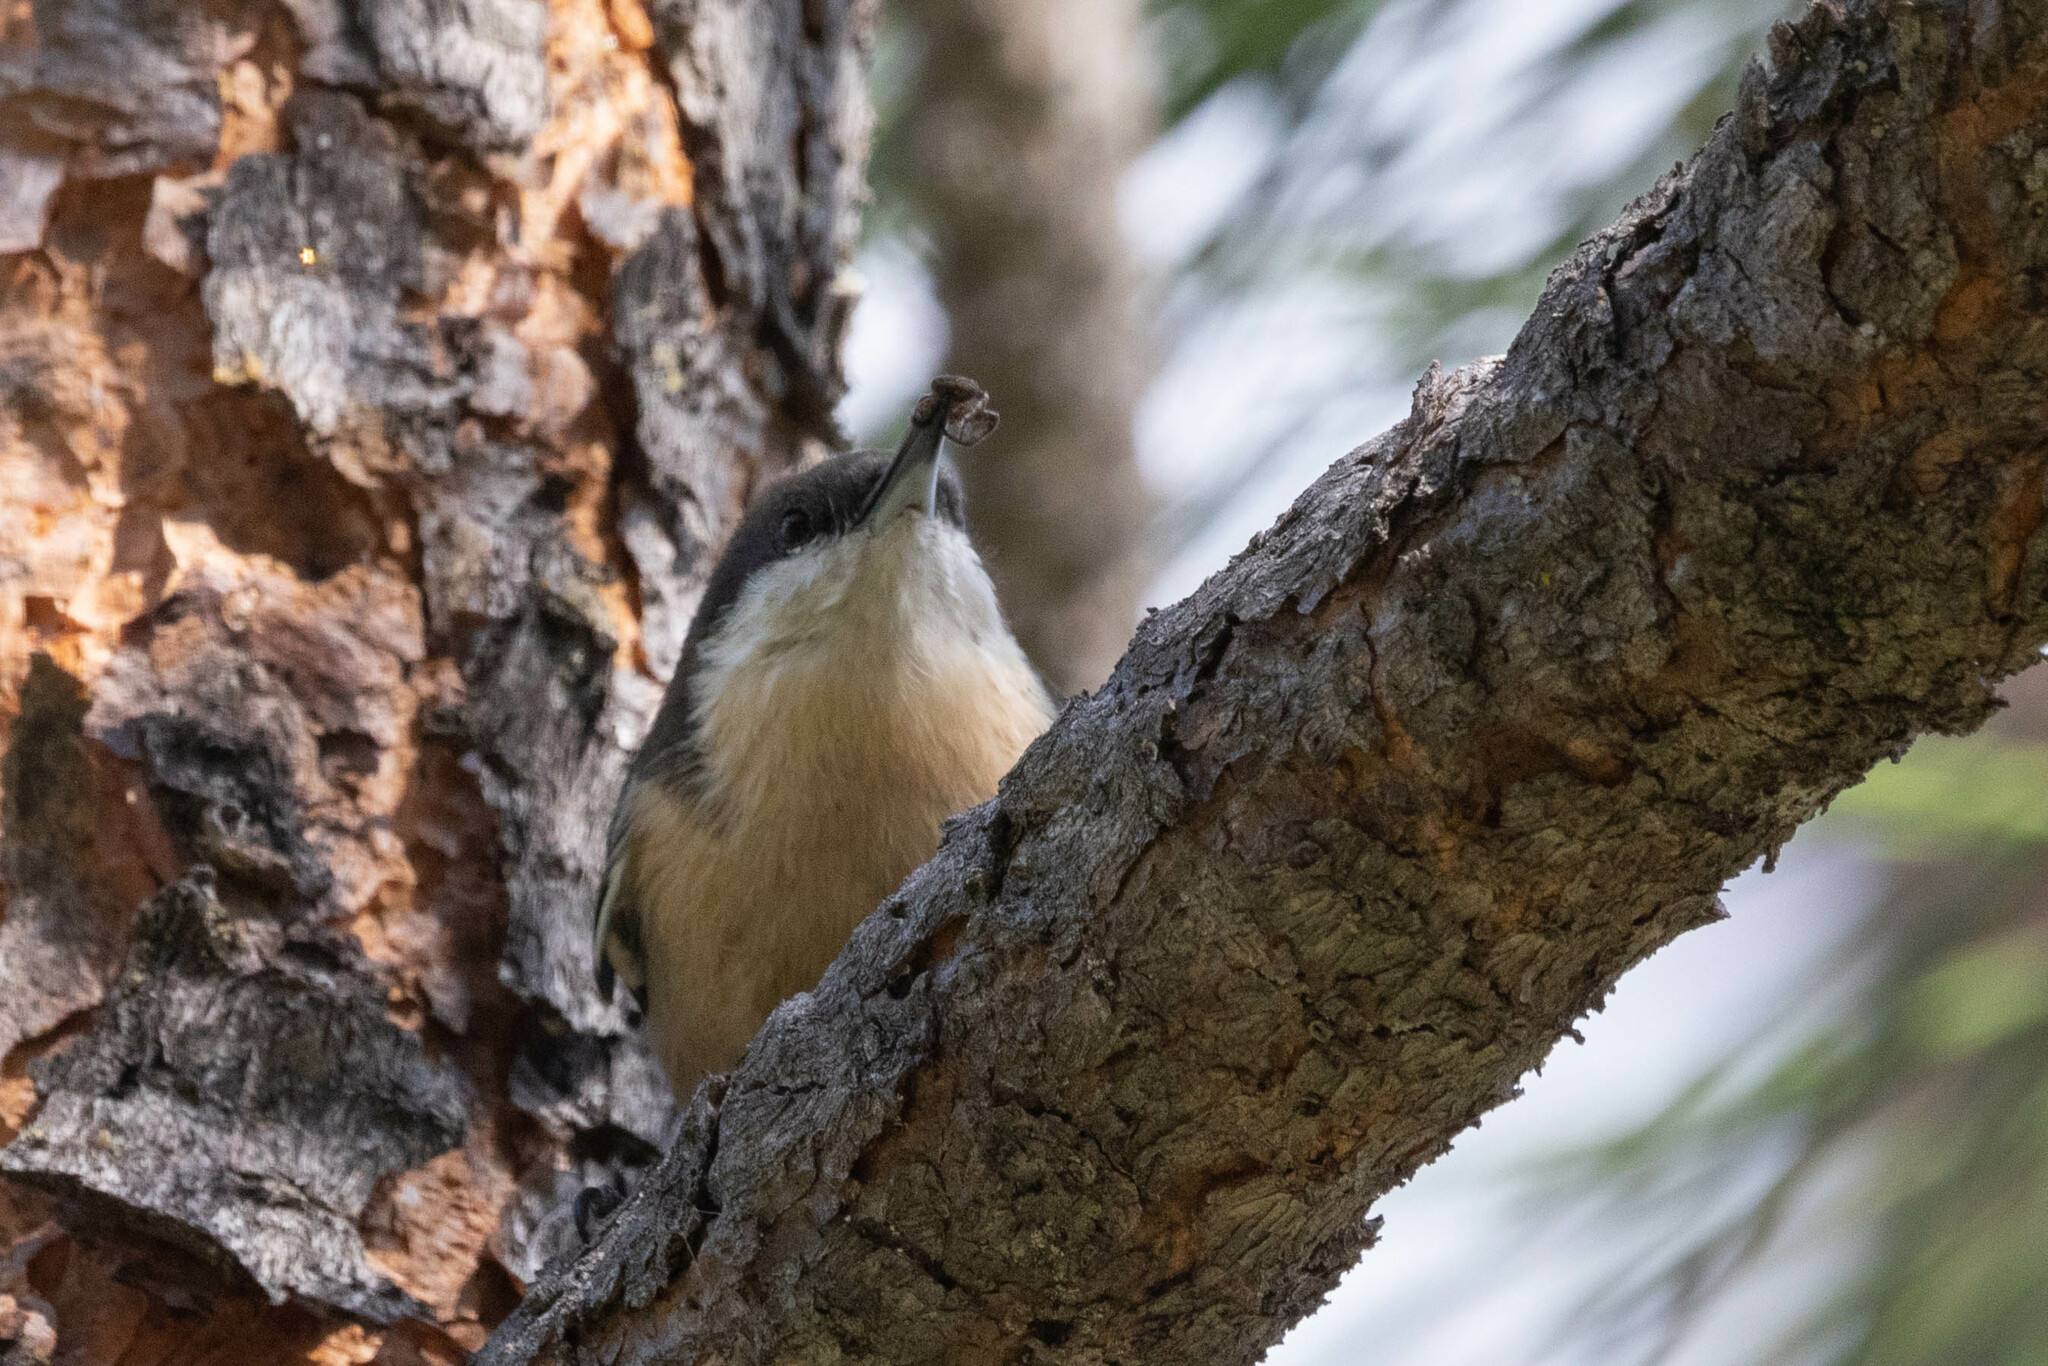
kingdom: Animalia
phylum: Chordata
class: Aves
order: Passeriformes
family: Sittidae
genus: Sitta
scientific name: Sitta pygmaea
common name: Pygmy nuthatch
